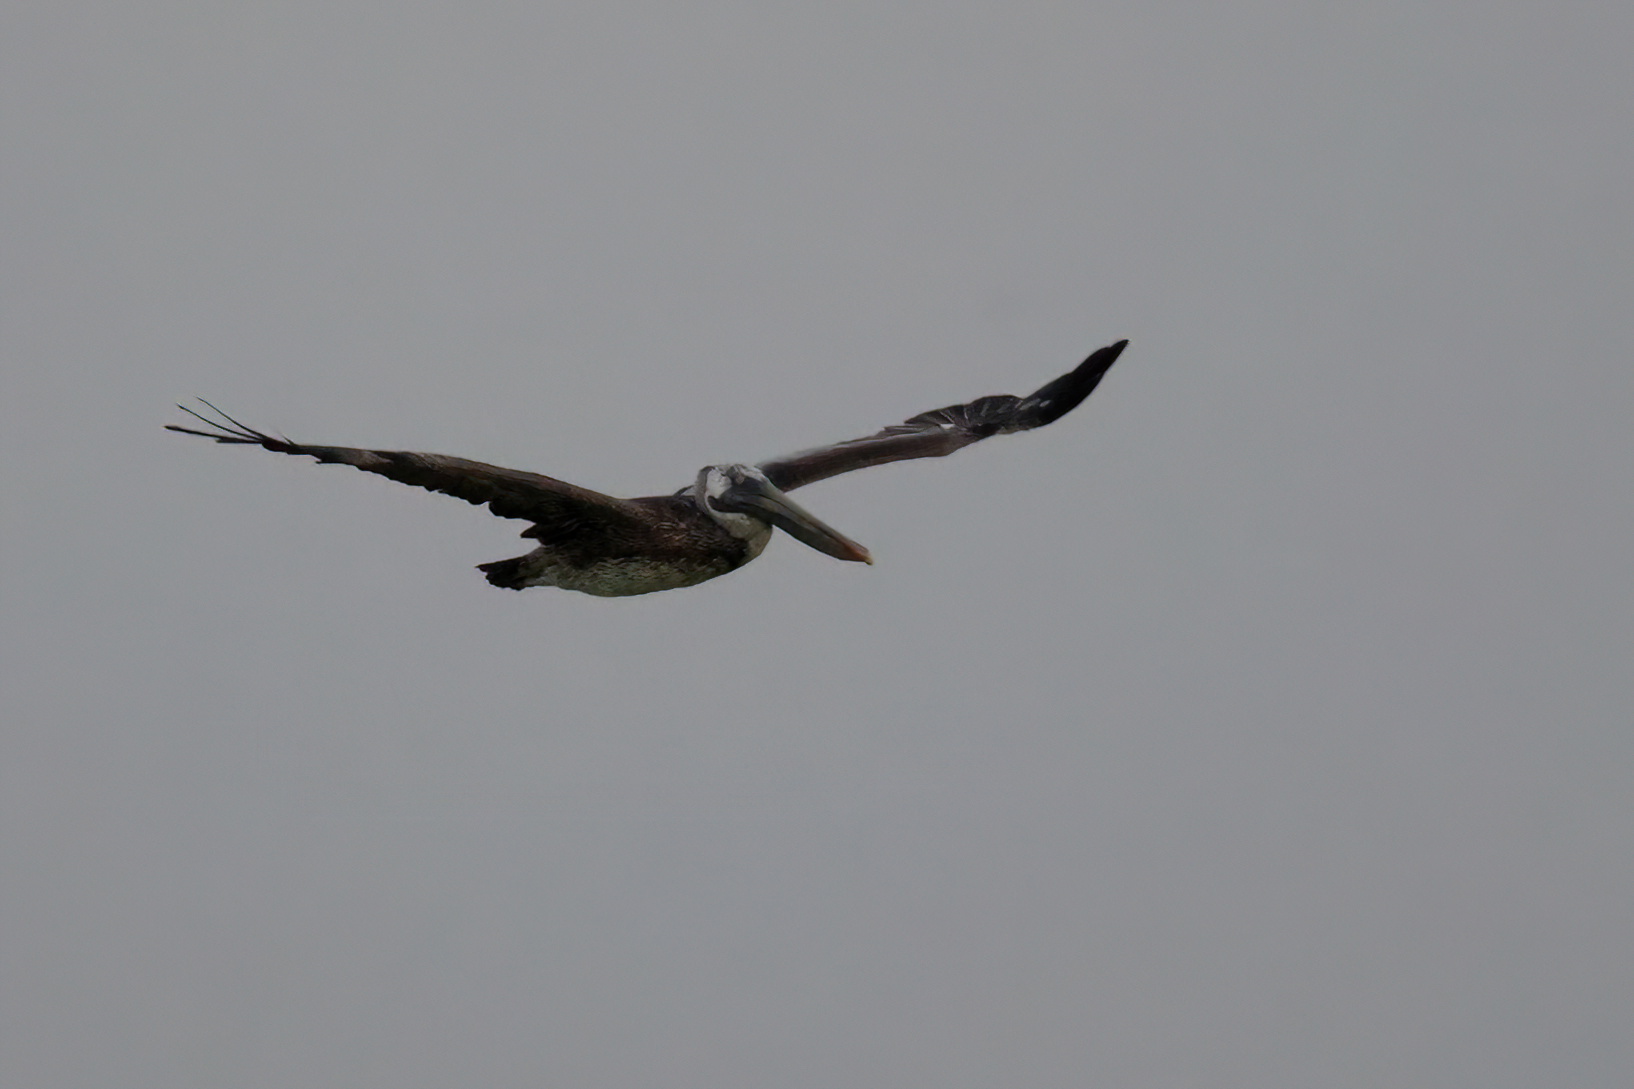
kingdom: Animalia
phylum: Chordata
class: Aves
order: Pelecaniformes
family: Pelecanidae
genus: Pelecanus
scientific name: Pelecanus occidentalis
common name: Brown pelican
